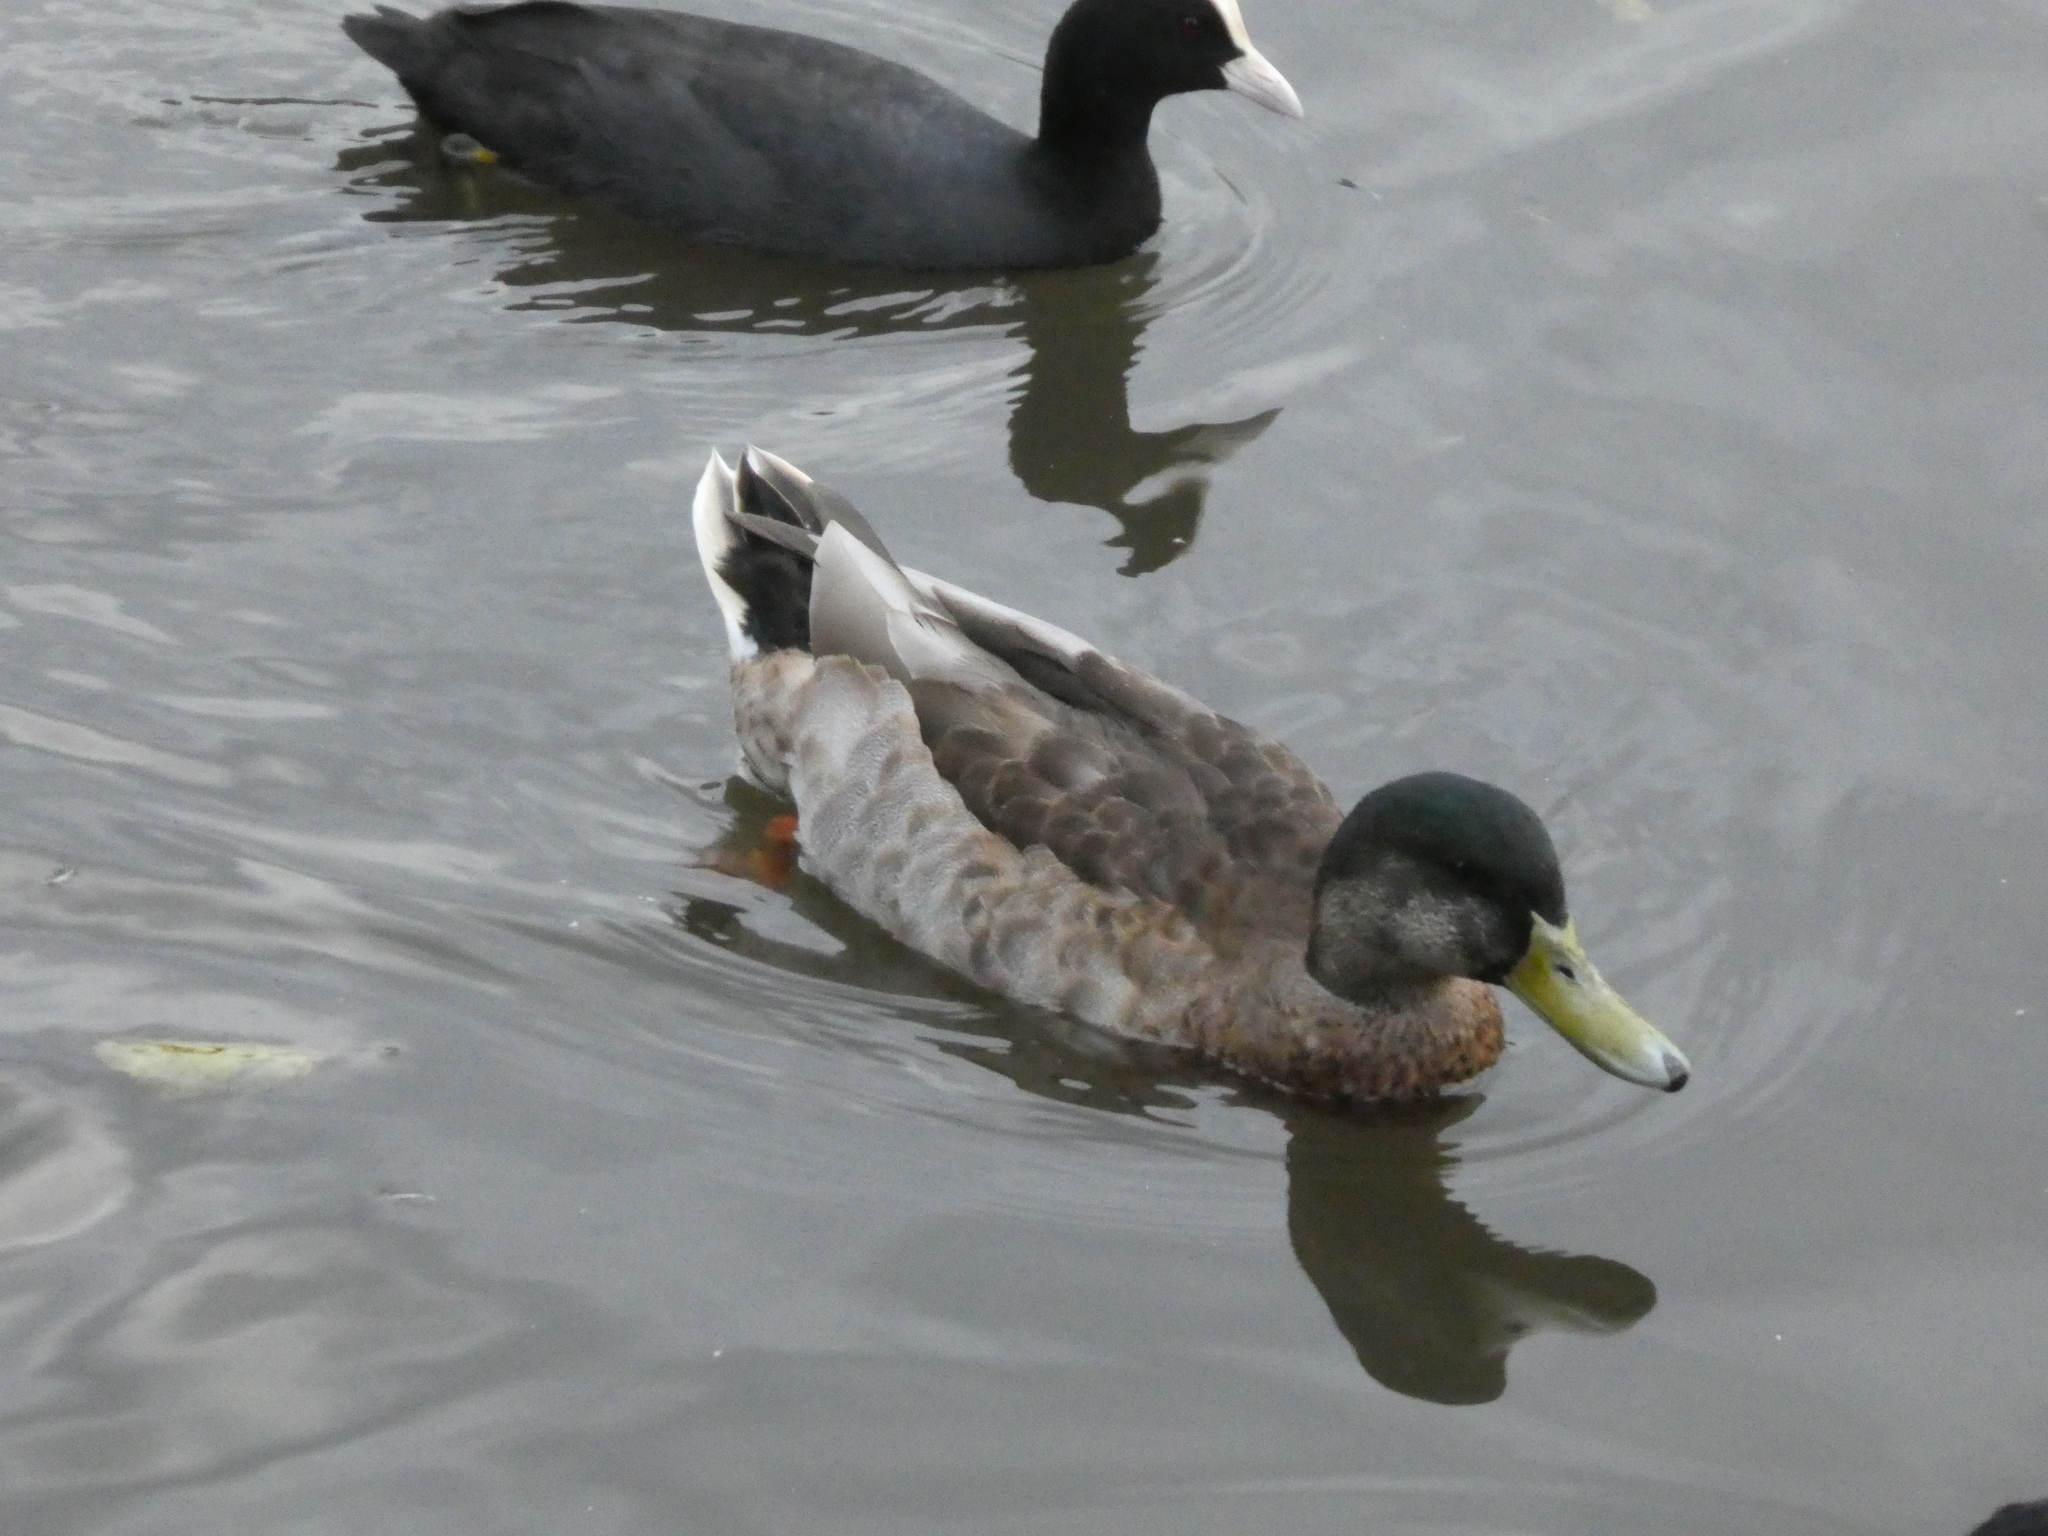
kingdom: Animalia
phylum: Chordata
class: Aves
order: Anseriformes
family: Anatidae
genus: Anas
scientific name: Anas platyrhynchos
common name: Mallard
